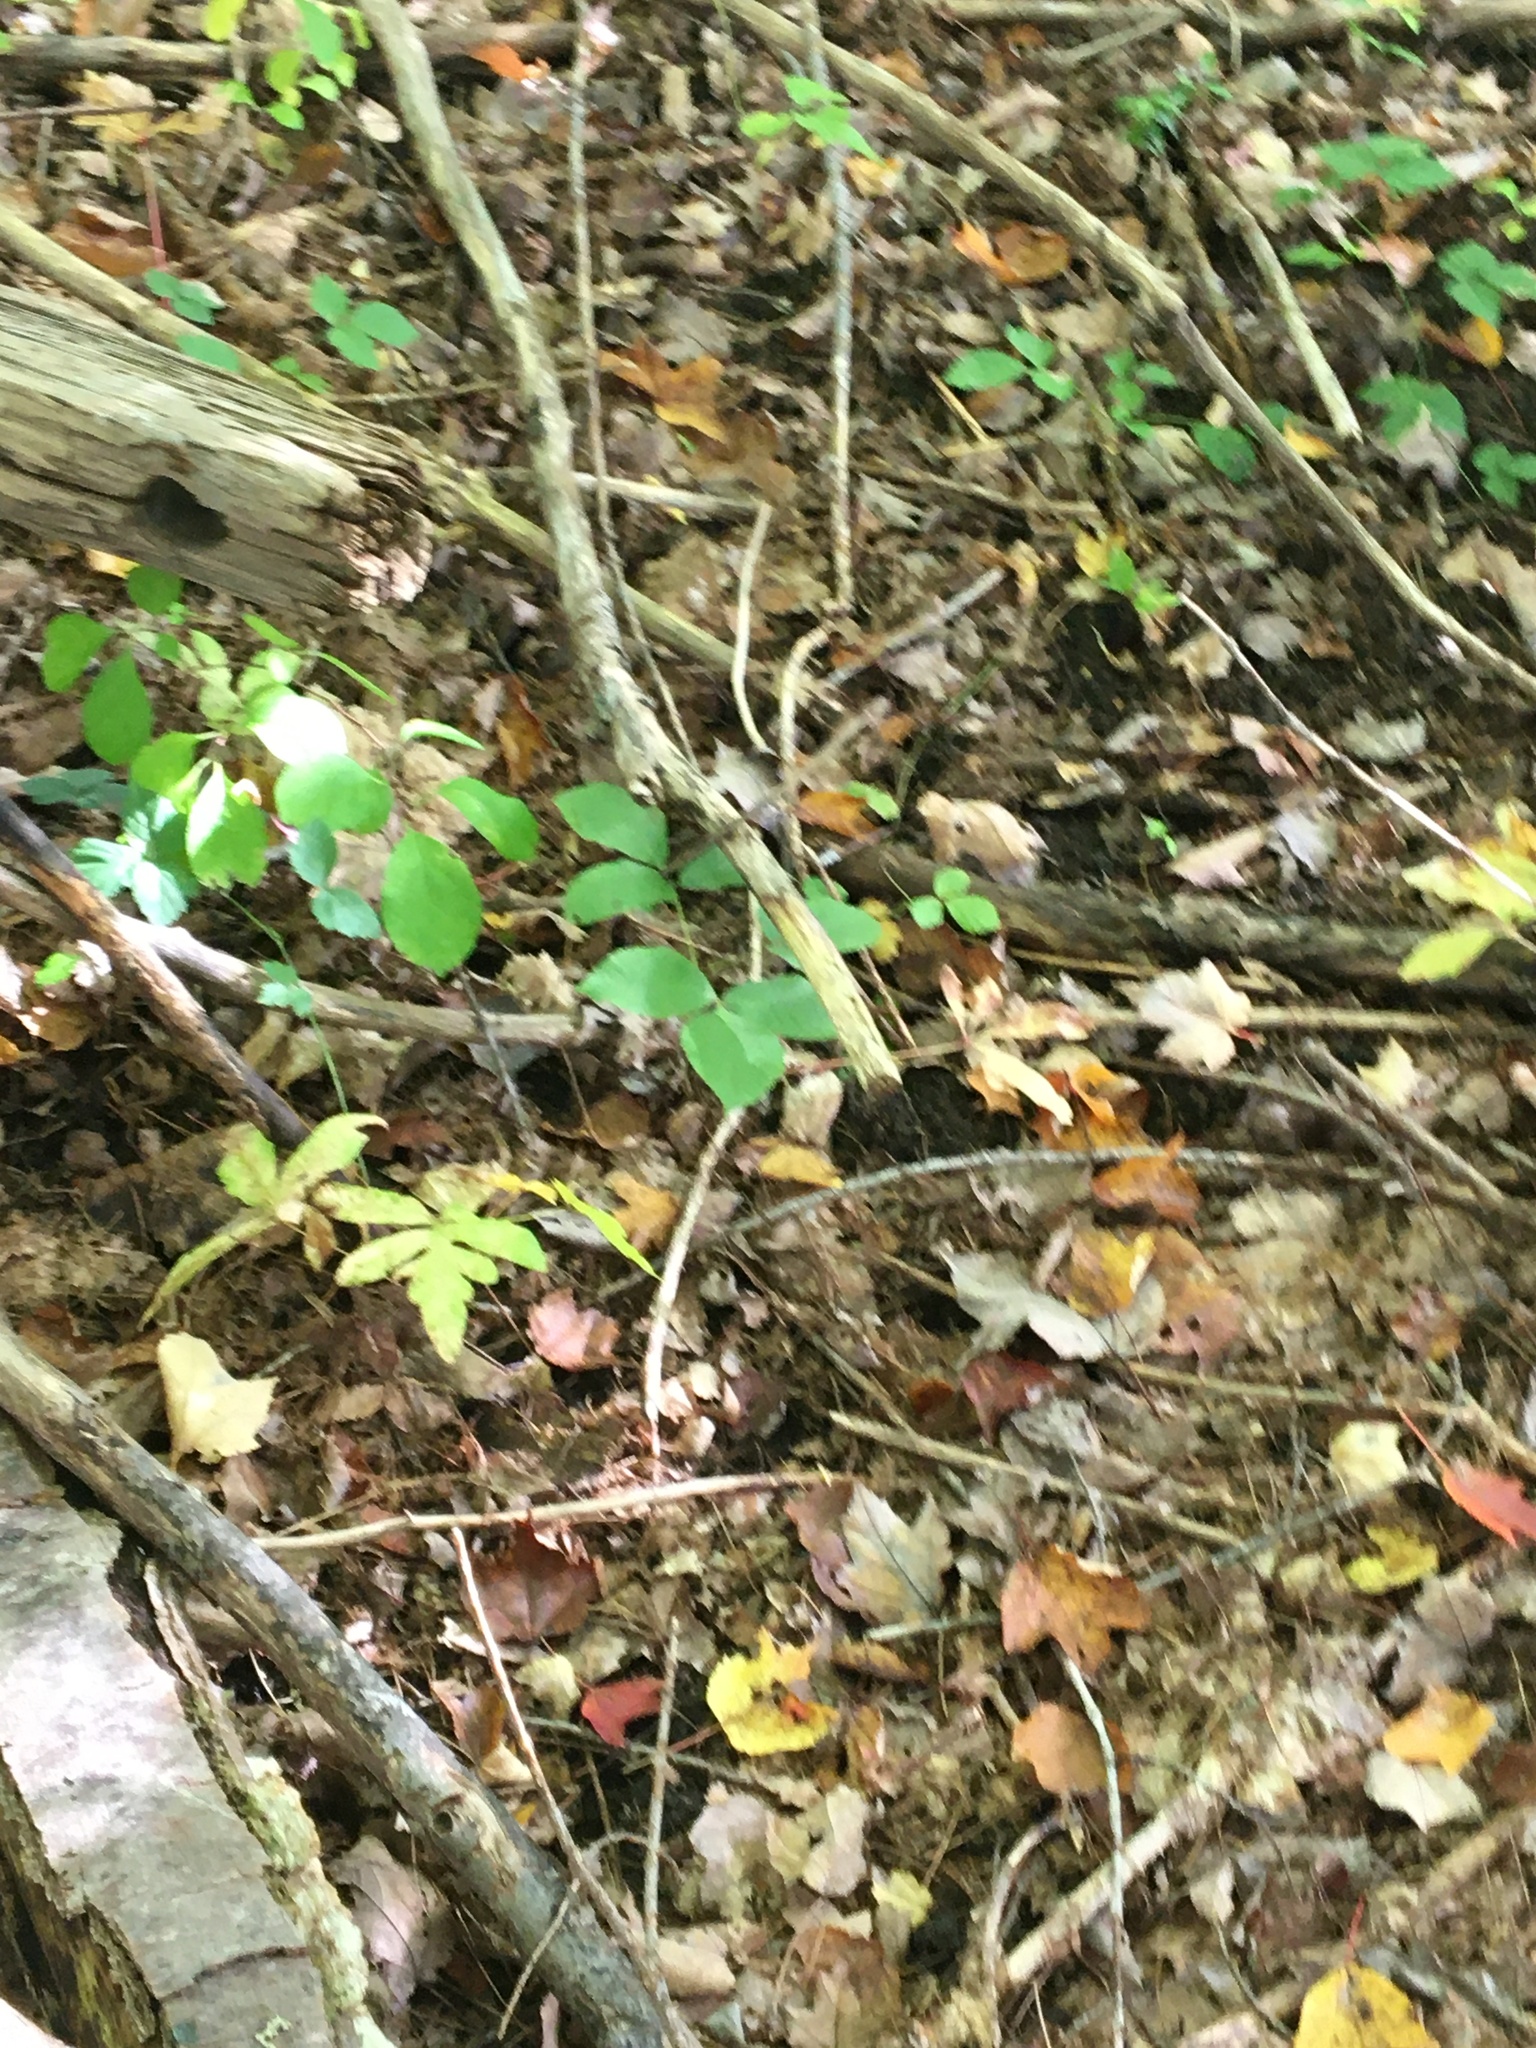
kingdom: Plantae
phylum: Tracheophyta
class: Magnoliopsida
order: Sapindales
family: Anacardiaceae
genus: Toxicodendron
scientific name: Toxicodendron radicans
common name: Poison ivy
